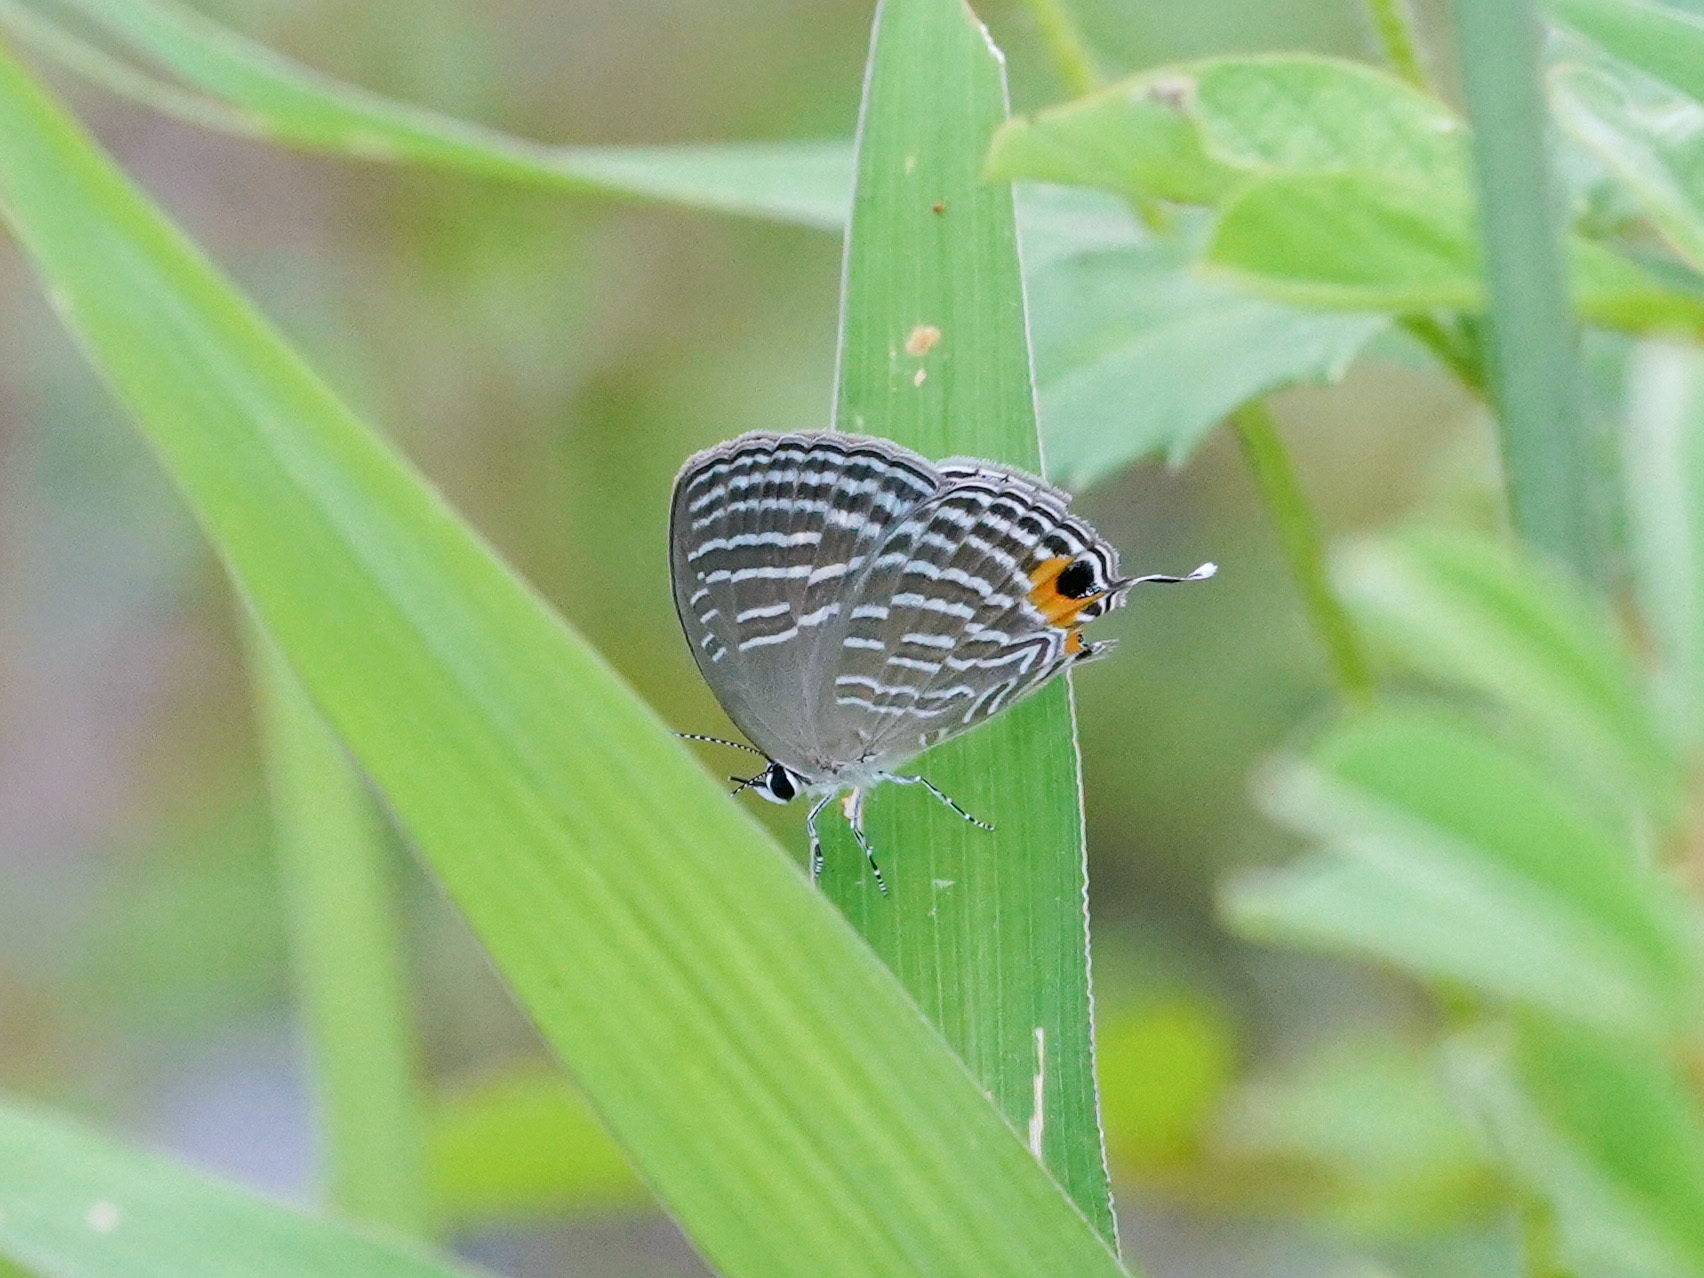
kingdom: Animalia
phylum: Arthropoda
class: Insecta
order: Lepidoptera
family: Lycaenidae
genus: Jamides
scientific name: Jamides celeno
